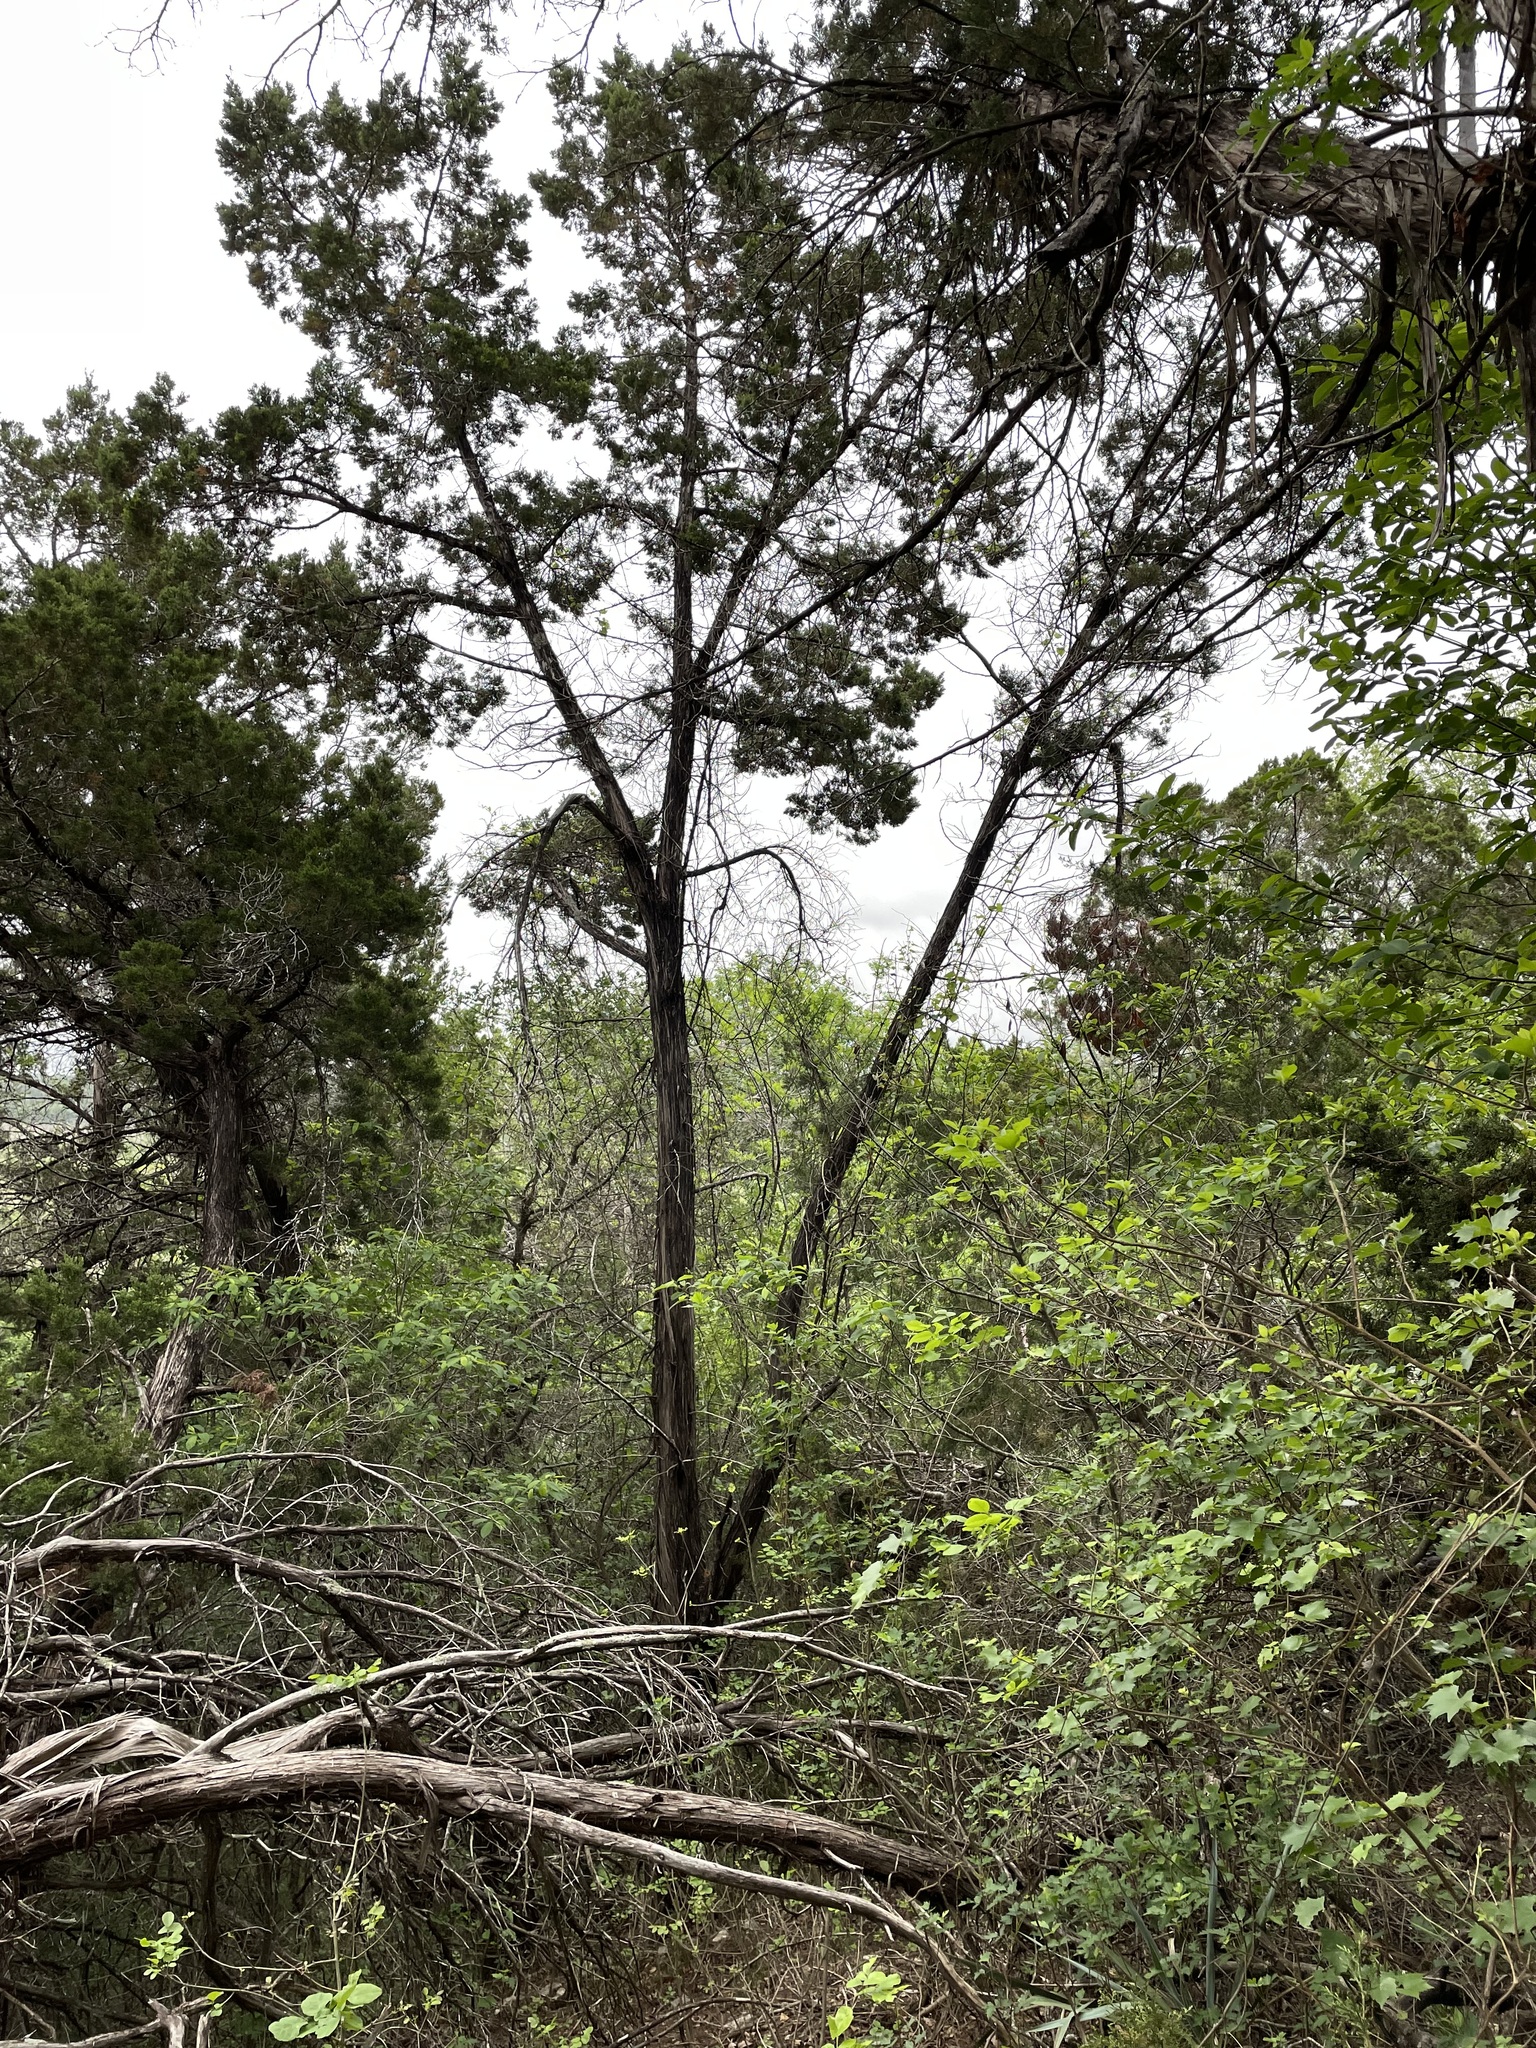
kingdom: Plantae
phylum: Tracheophyta
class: Pinopsida
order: Pinales
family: Cupressaceae
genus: Juniperus
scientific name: Juniperus ashei
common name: Mexican juniper
